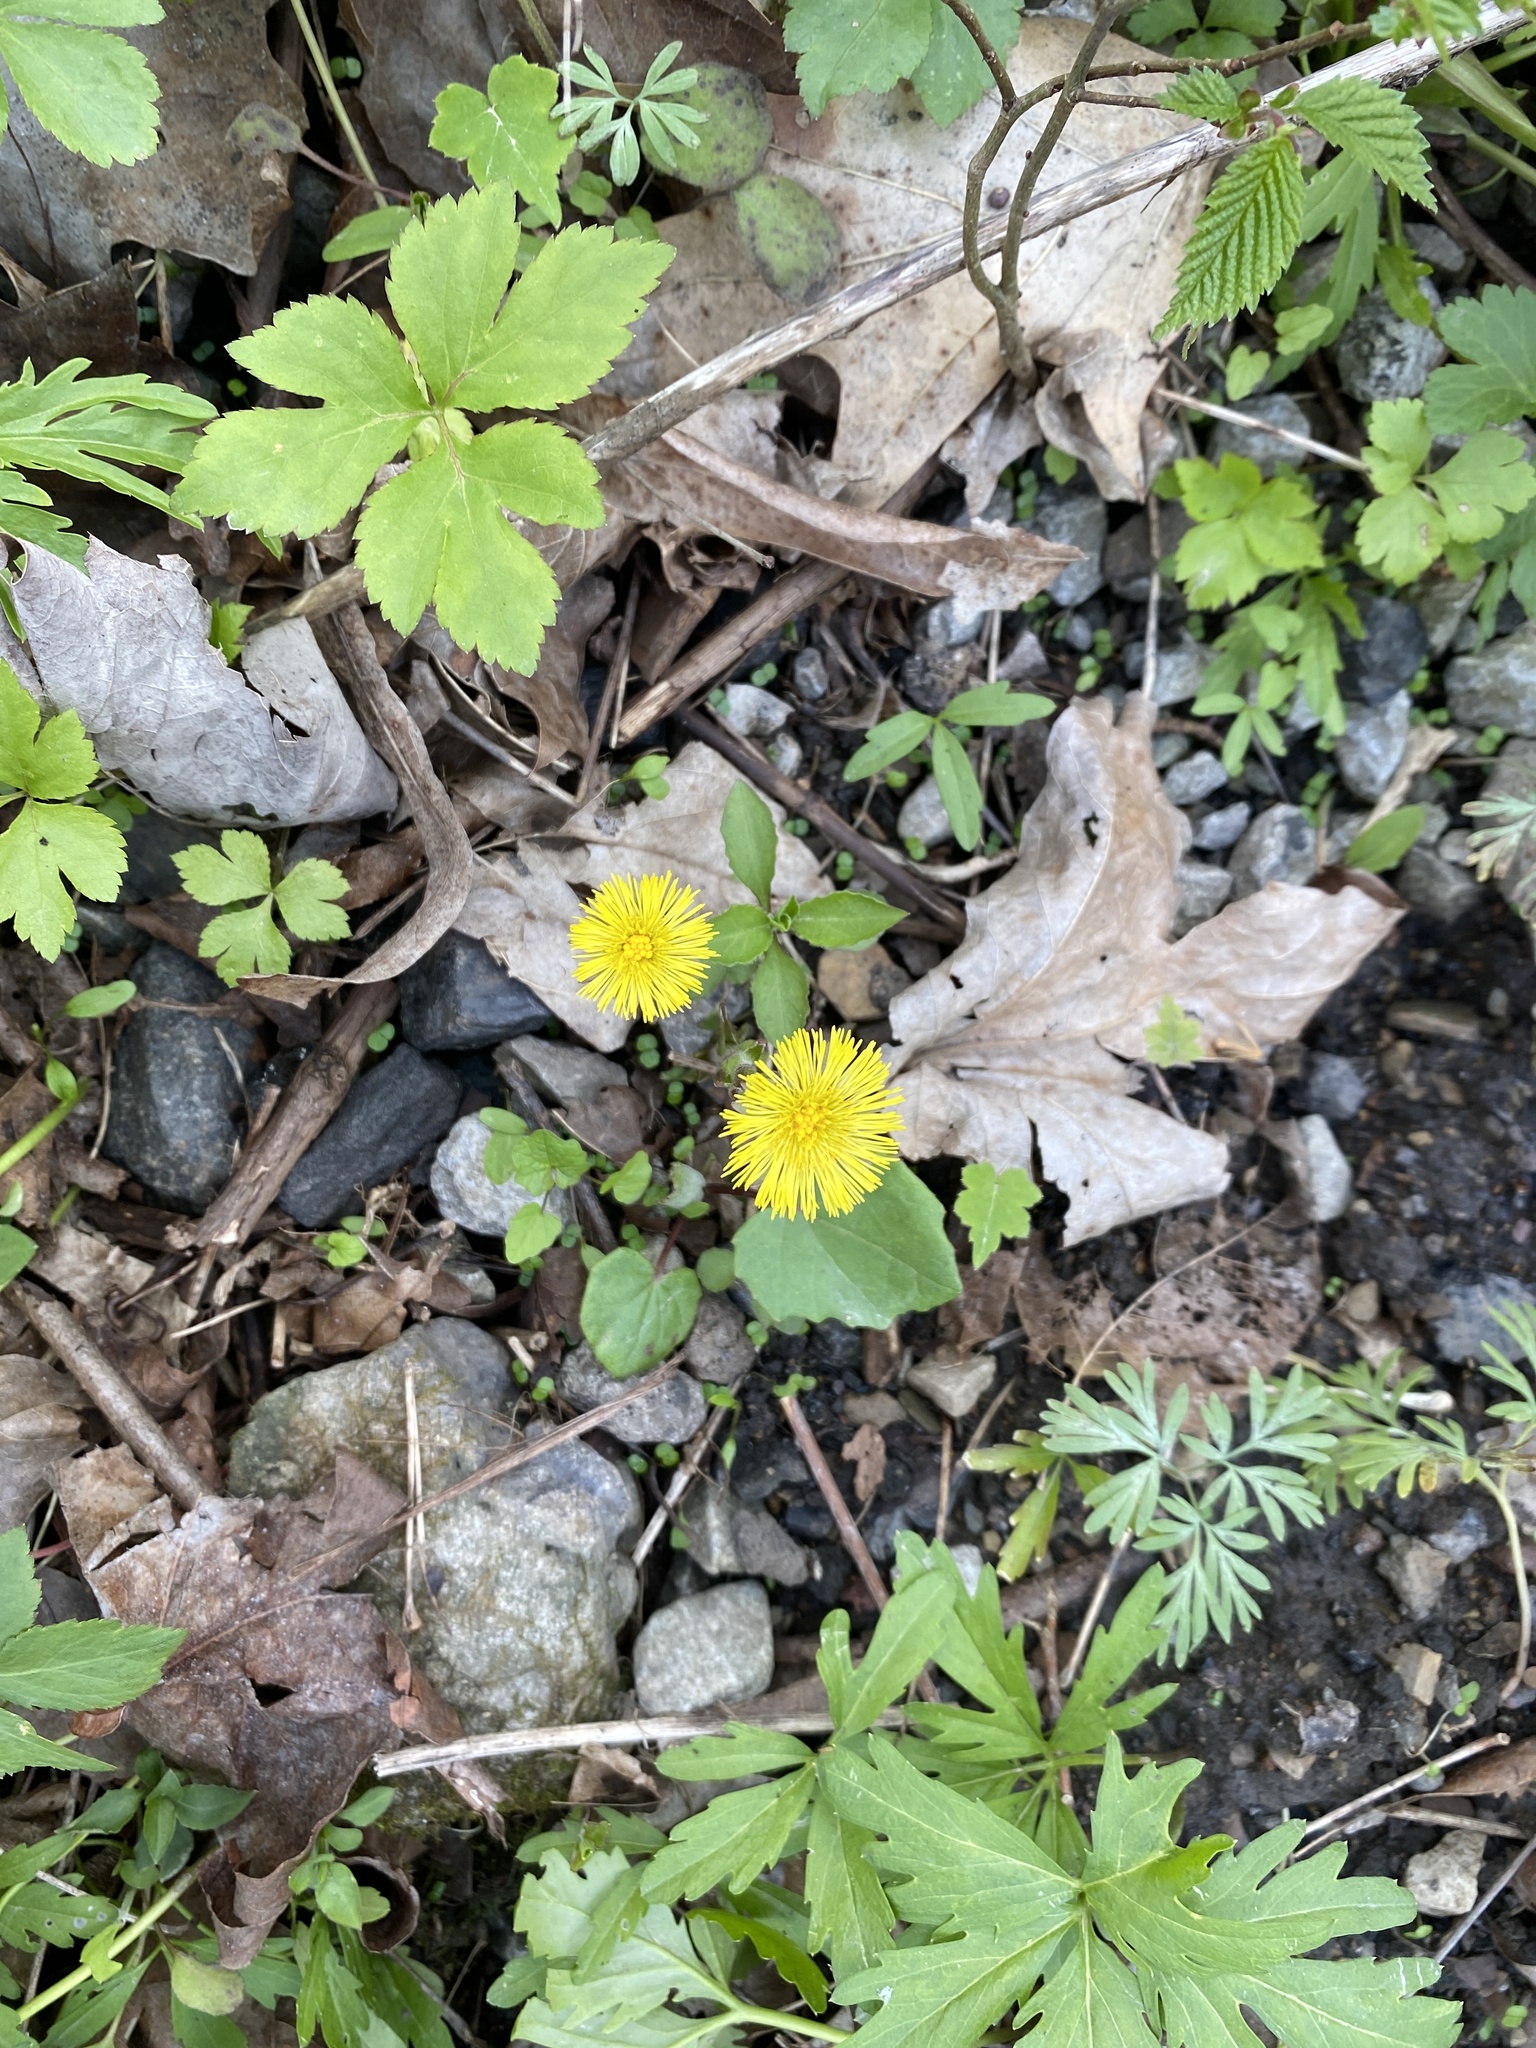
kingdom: Plantae
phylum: Tracheophyta
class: Magnoliopsida
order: Asterales
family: Asteraceae
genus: Tussilago
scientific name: Tussilago farfara
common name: Coltsfoot
